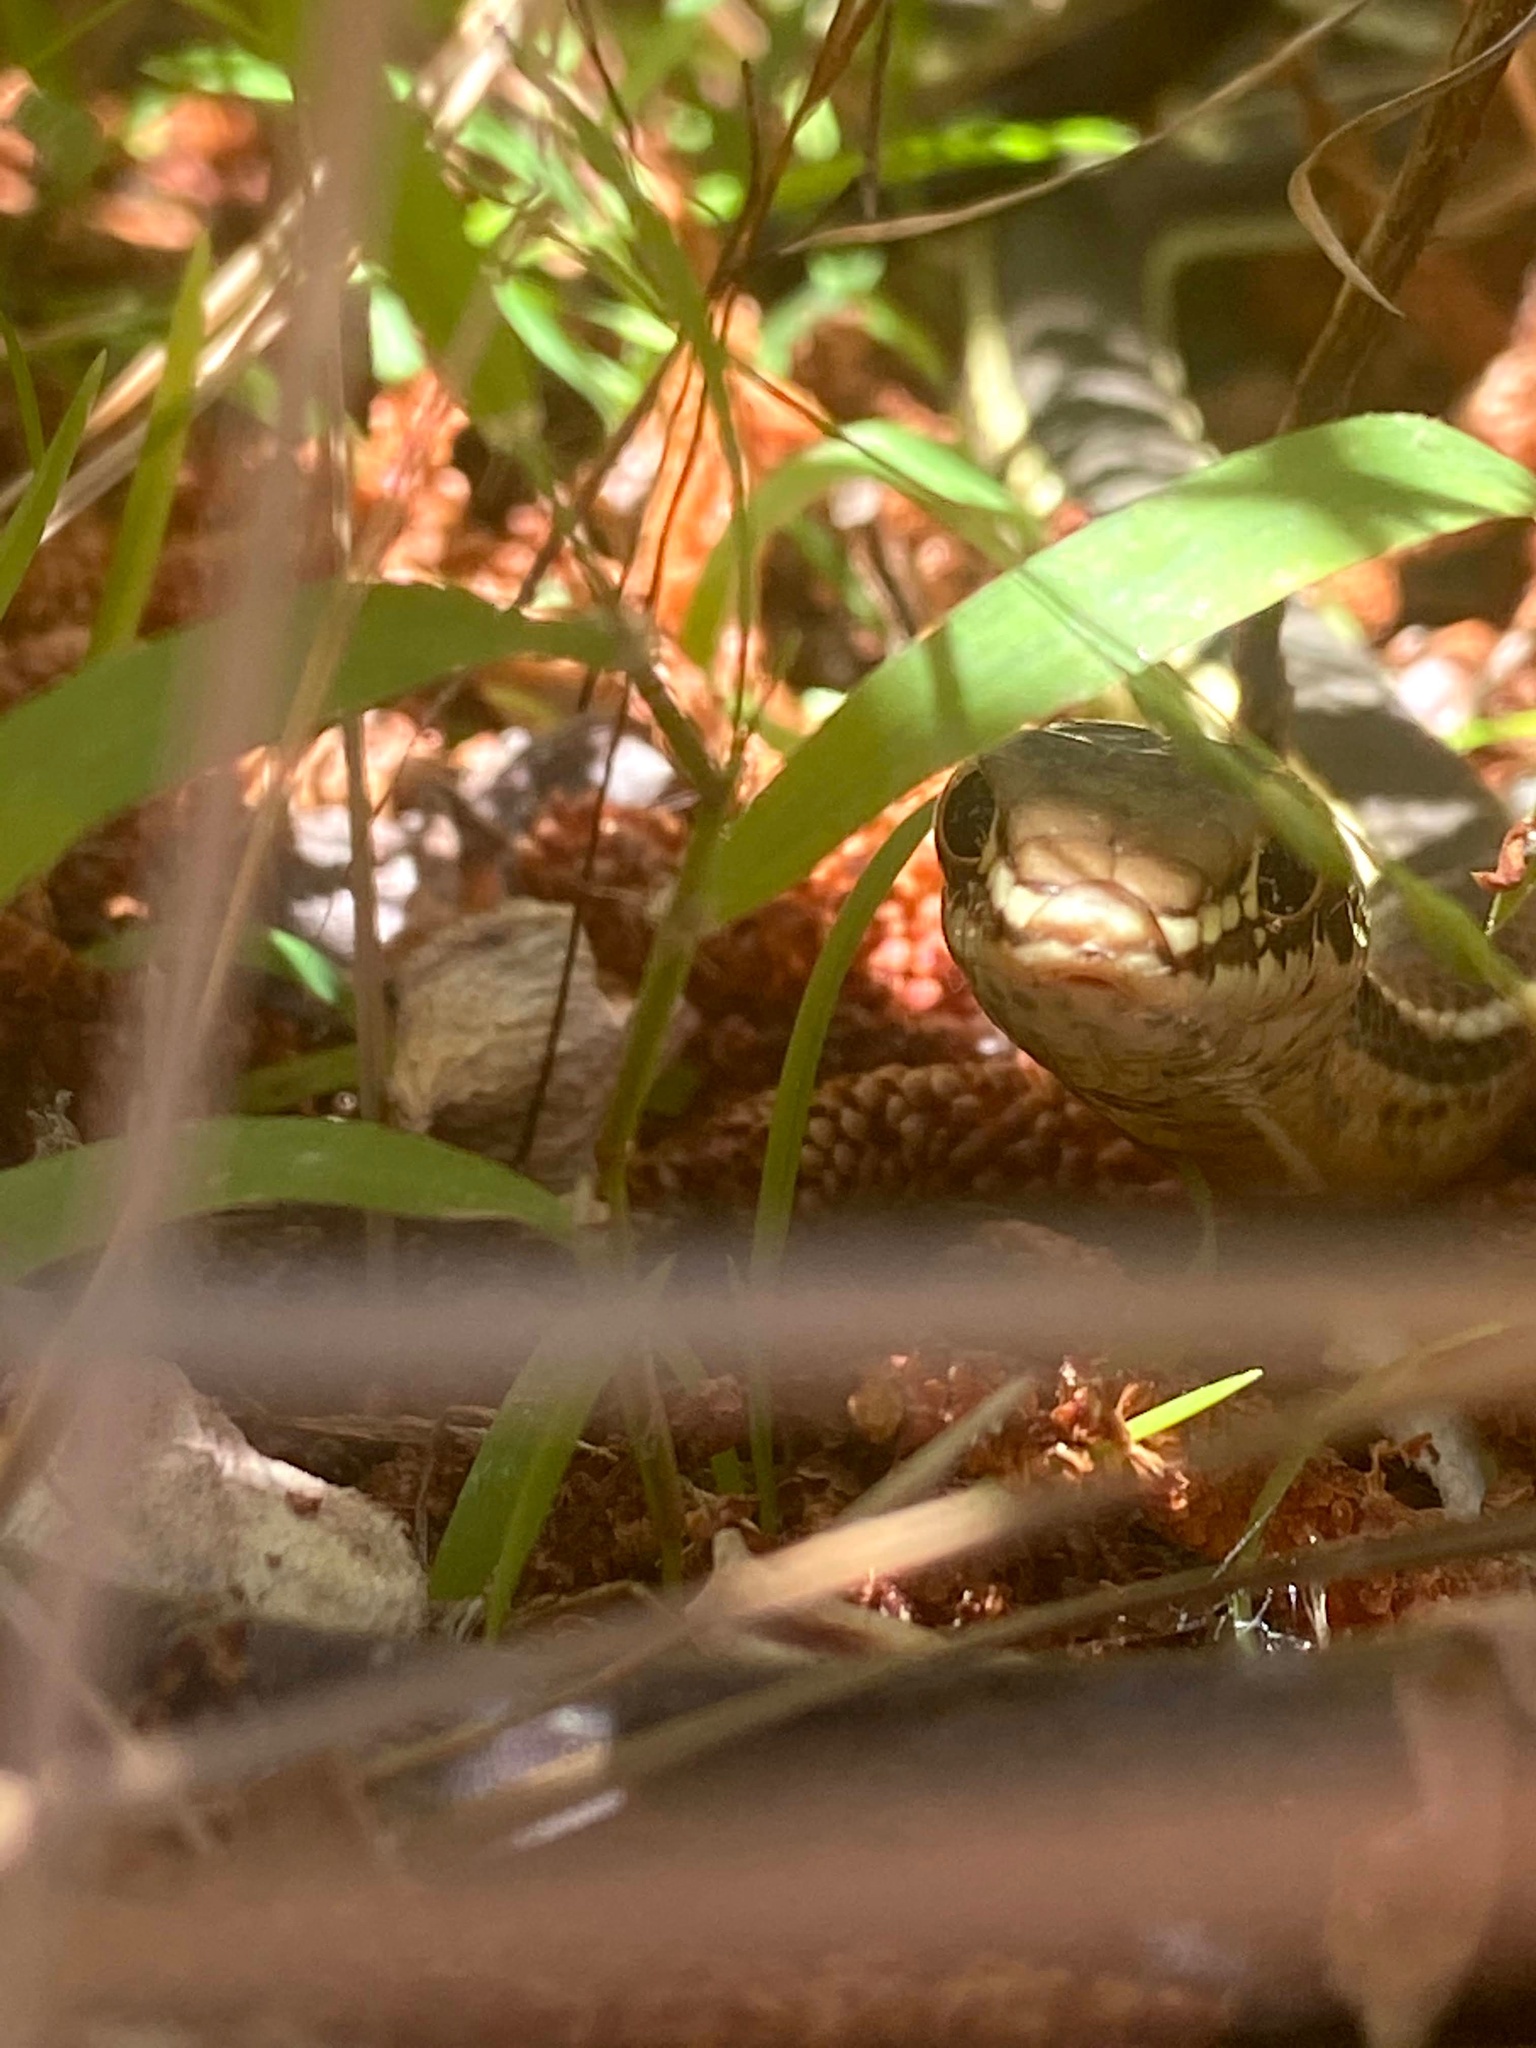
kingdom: Animalia
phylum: Chordata
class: Squamata
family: Colubridae
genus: Masticophis
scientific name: Masticophis lateralis
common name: Striped racer
